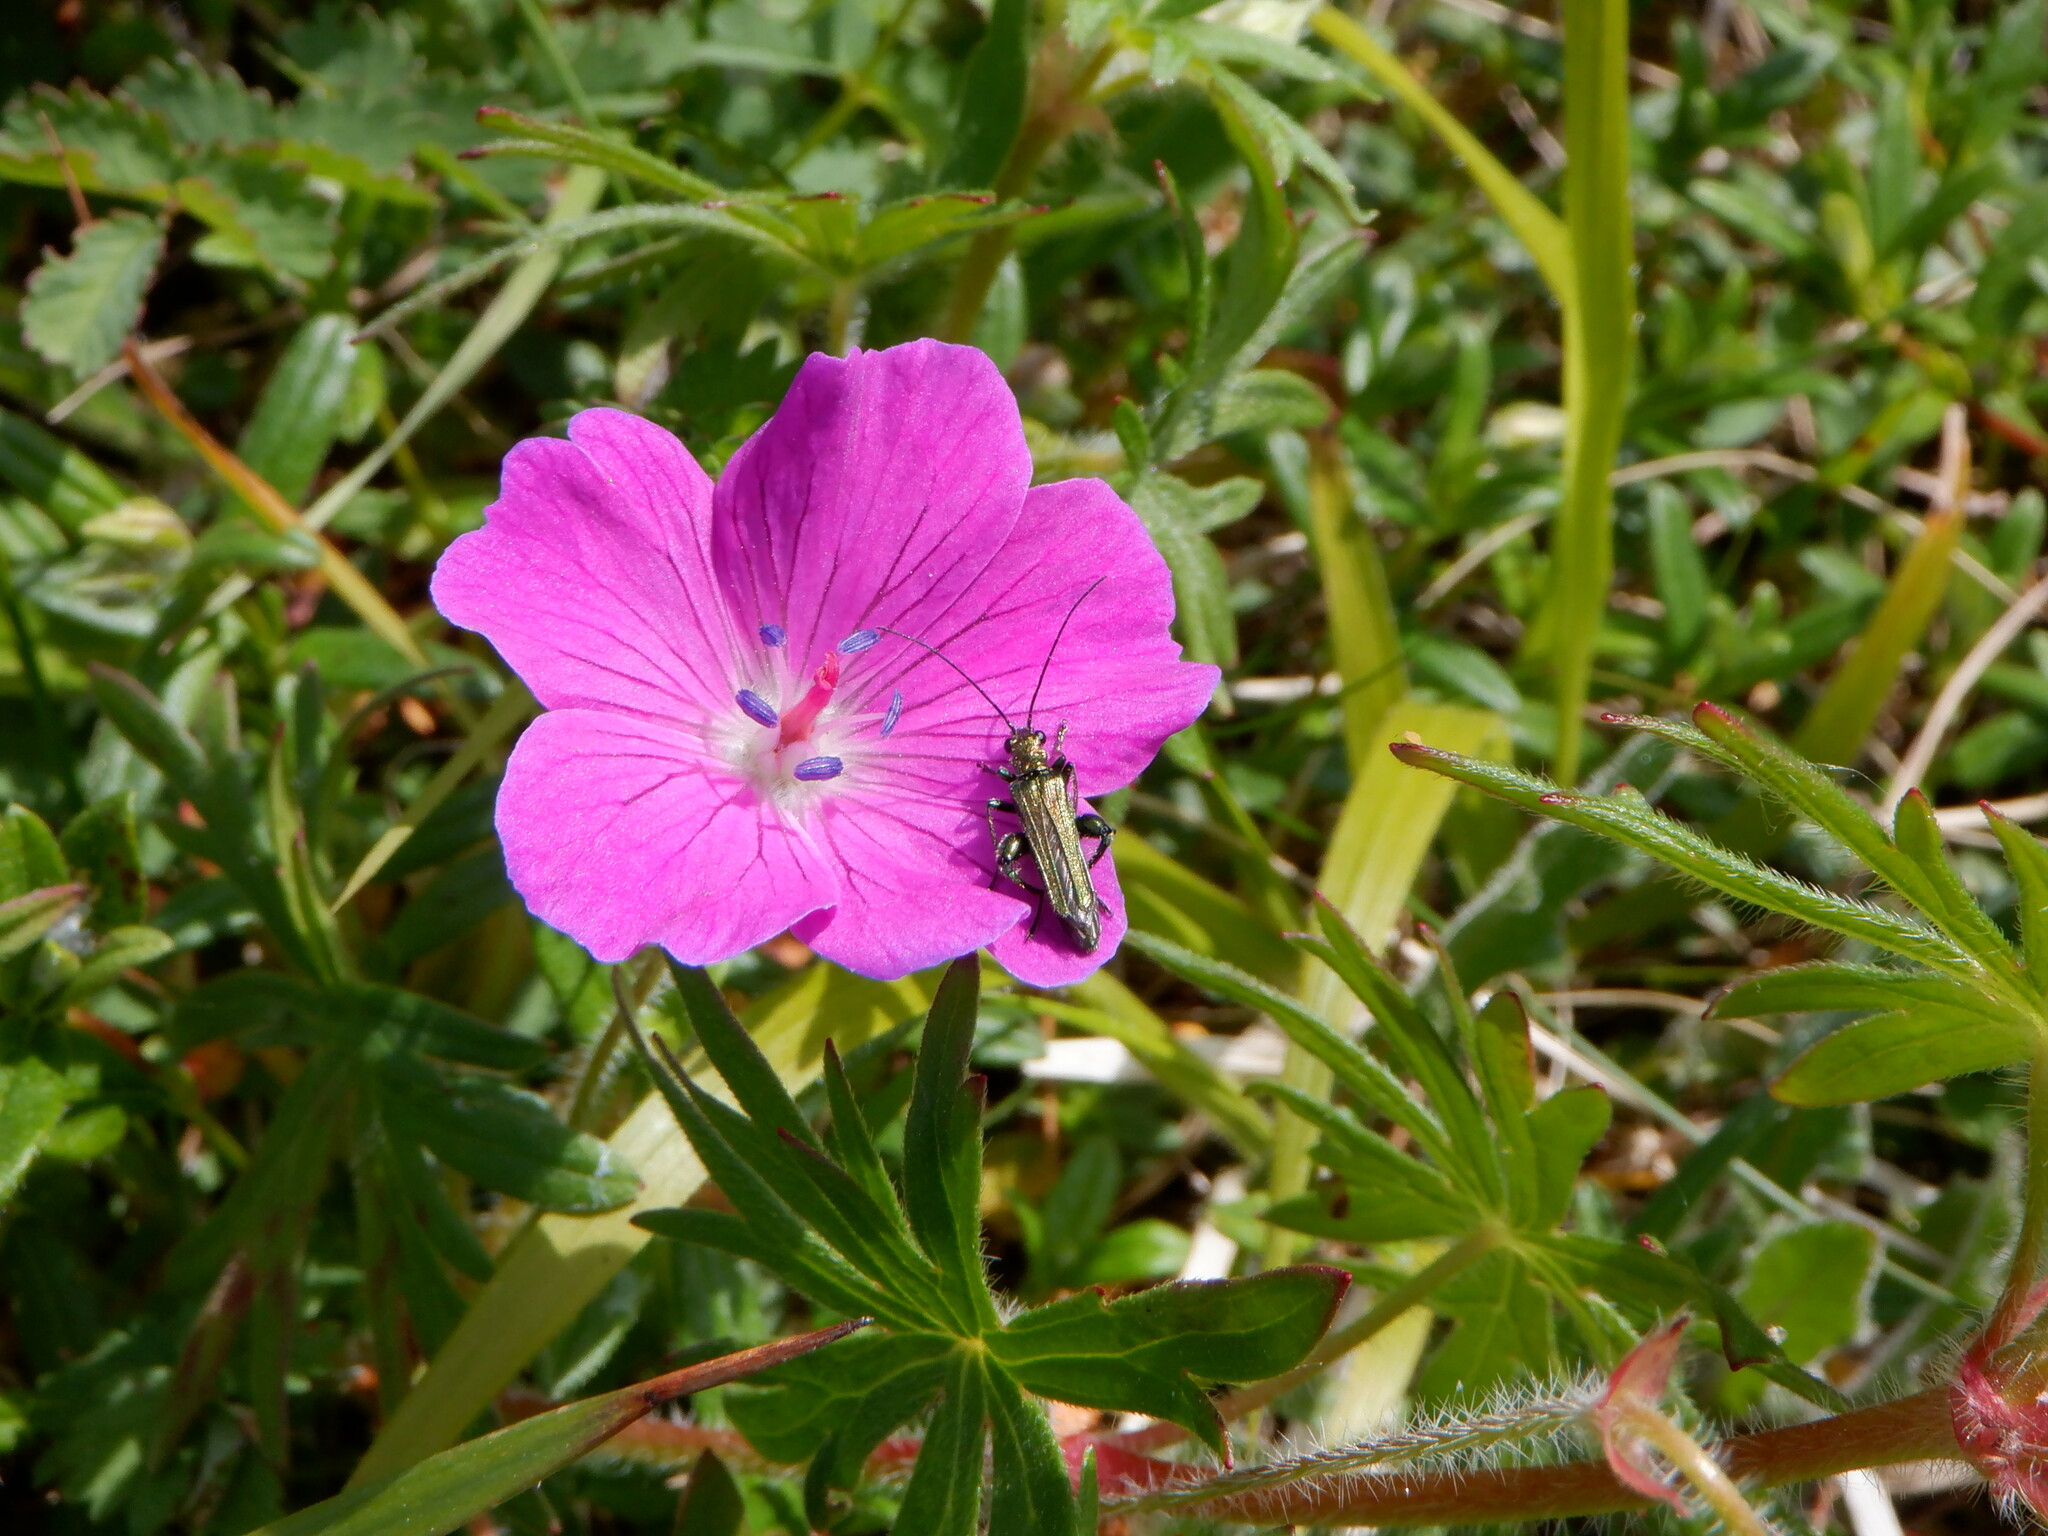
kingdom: Animalia
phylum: Arthropoda
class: Insecta
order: Coleoptera
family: Oedemeridae
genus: Oedemera
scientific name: Oedemera nobilis
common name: Swollen-thighed beetle
